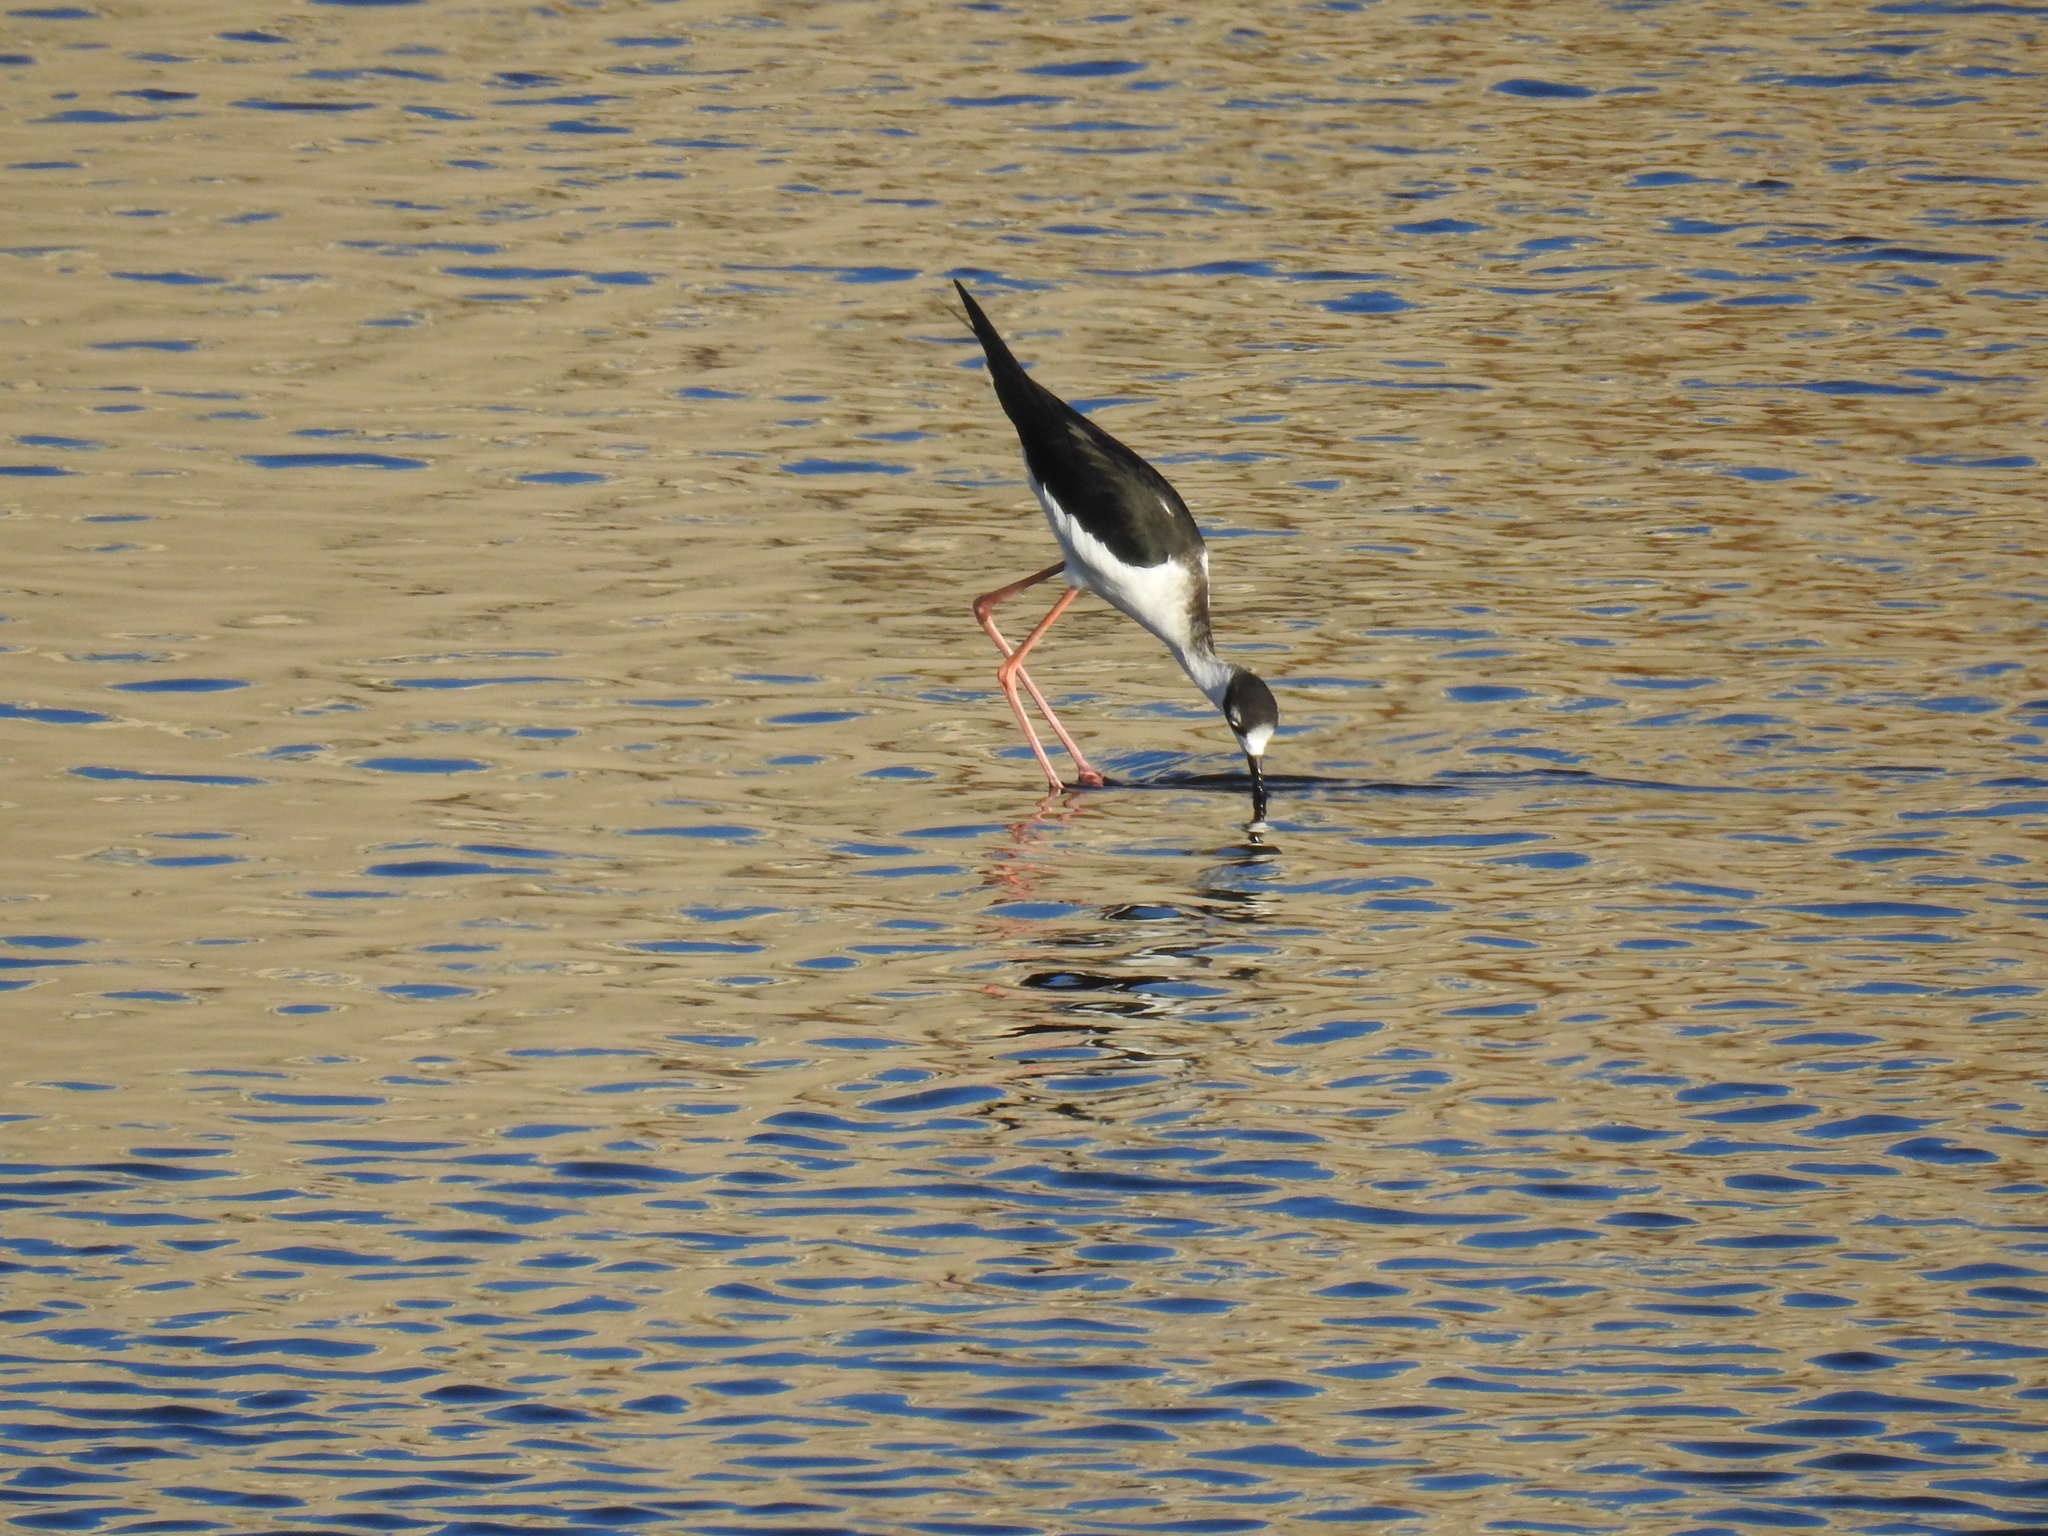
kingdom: Animalia
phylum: Chordata
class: Aves
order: Charadriiformes
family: Recurvirostridae
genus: Himantopus
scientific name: Himantopus mexicanus
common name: Black-necked stilt
